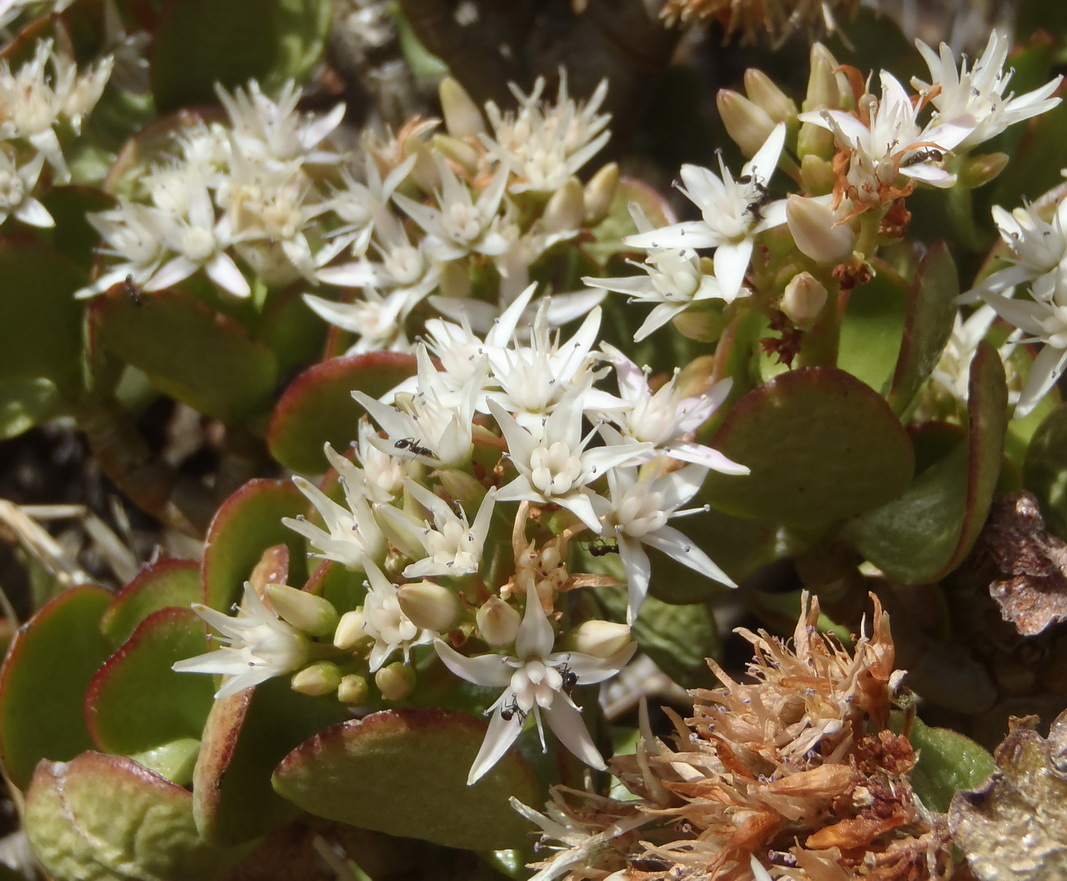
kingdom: Plantae
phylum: Tracheophyta
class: Magnoliopsida
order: Saxifragales
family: Crassulaceae
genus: Crassula
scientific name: Crassula ovata
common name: Jade plant
